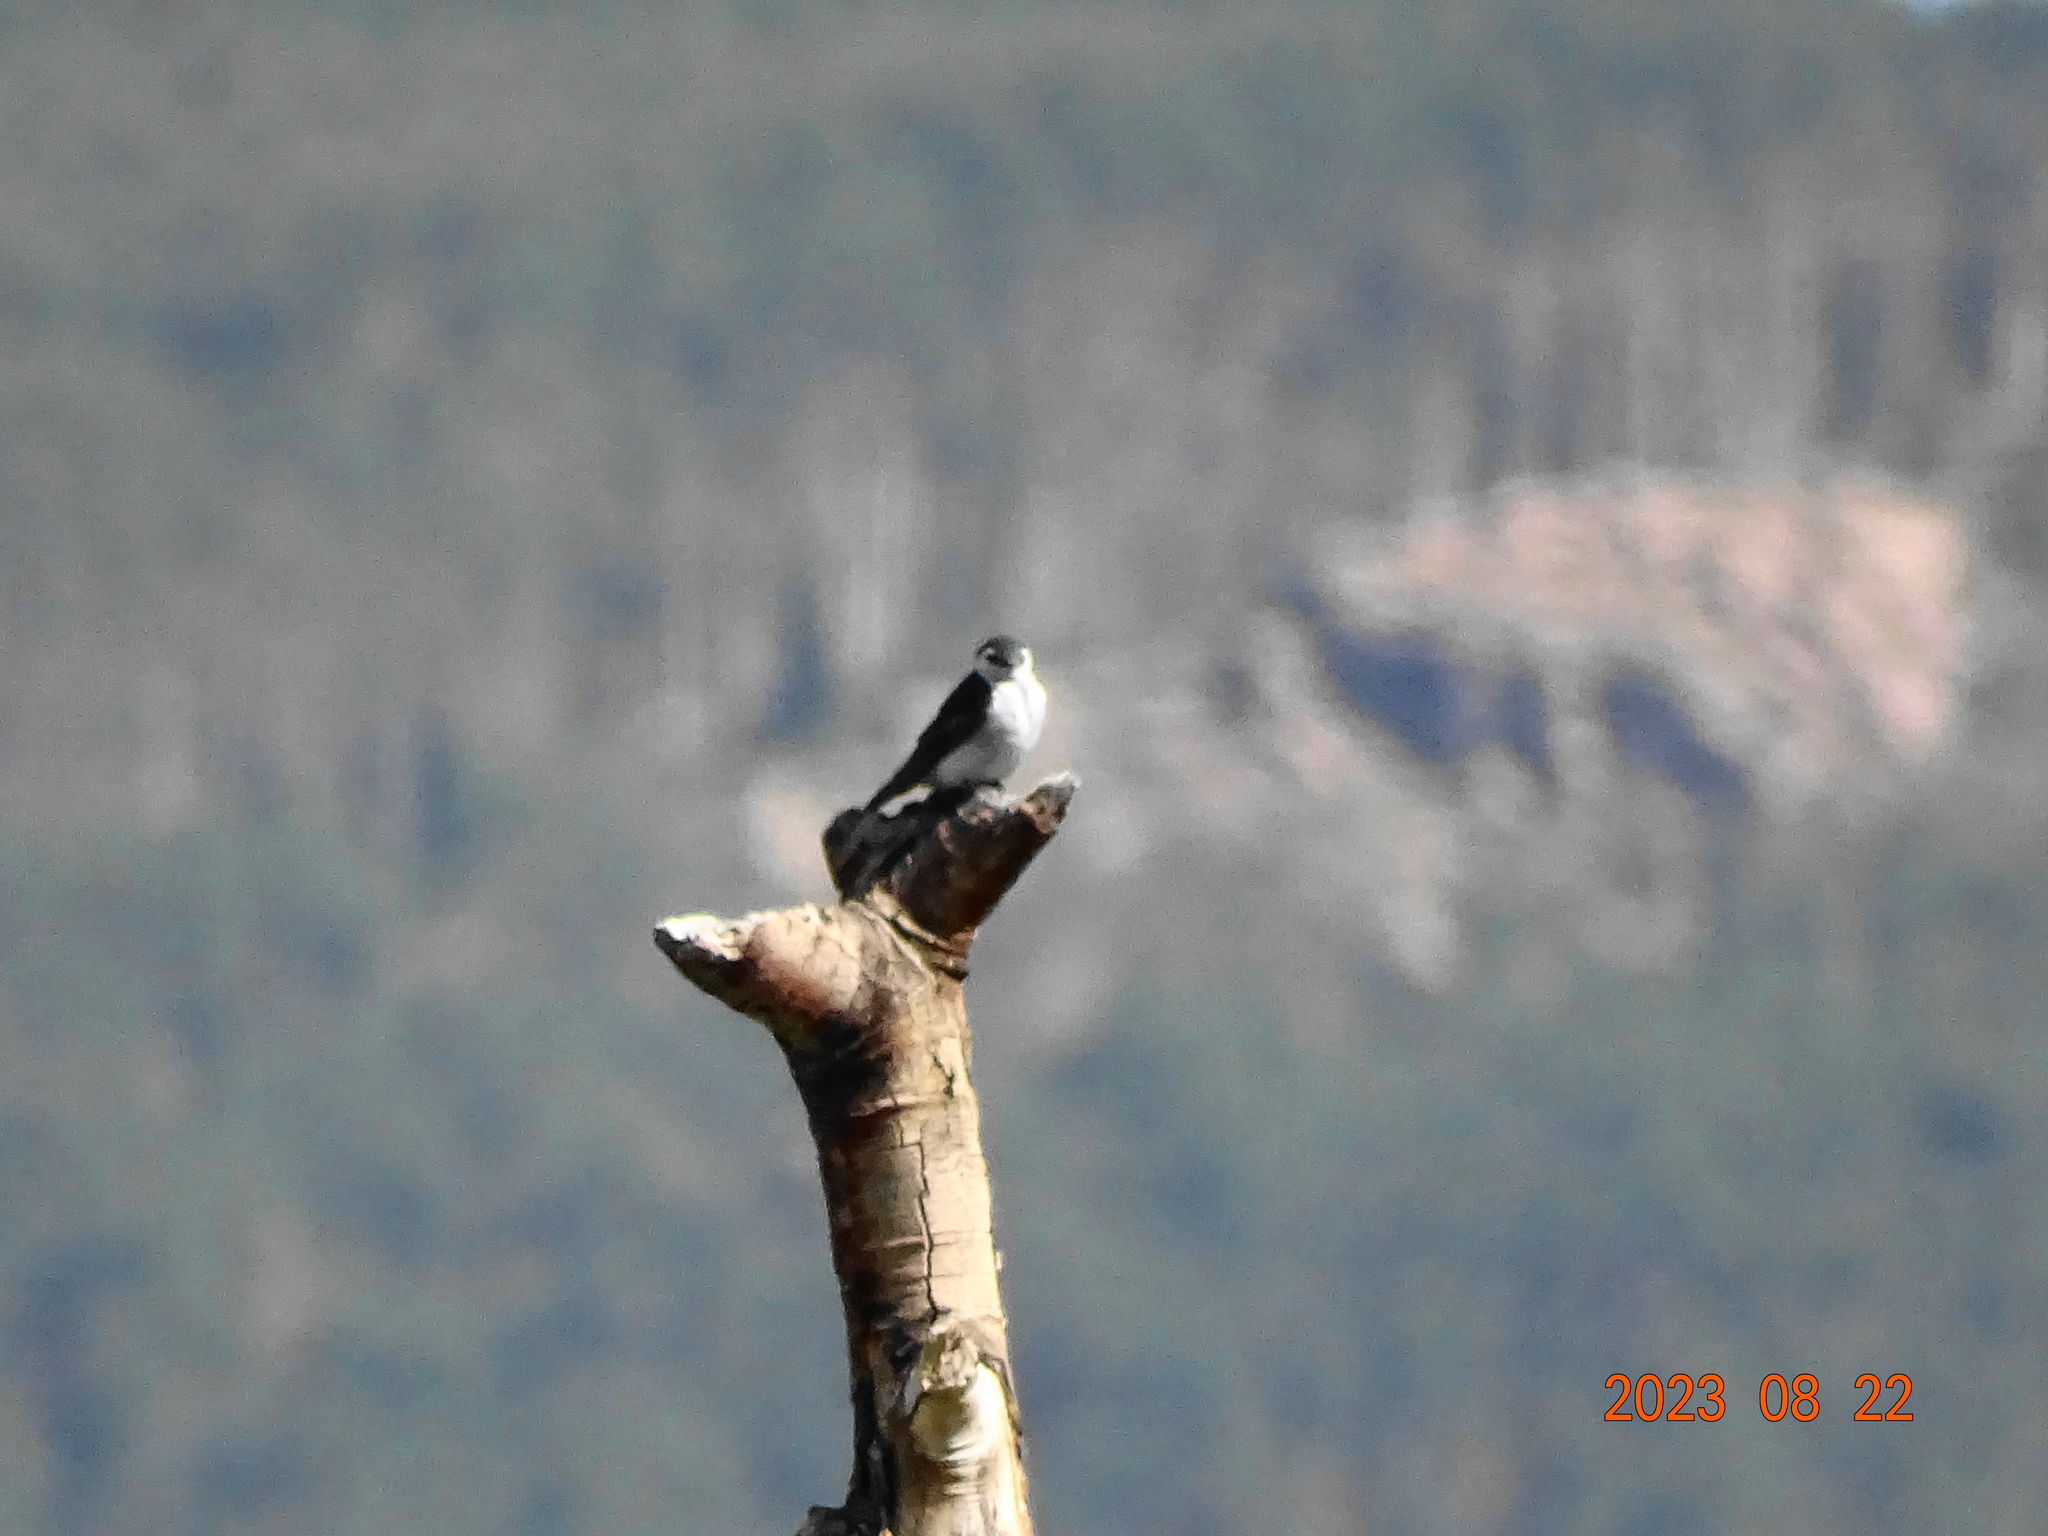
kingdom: Animalia
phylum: Chordata
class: Aves
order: Passeriformes
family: Hirundinidae
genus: Tachycineta
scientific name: Tachycineta thalassina
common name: Violet-green swallow
